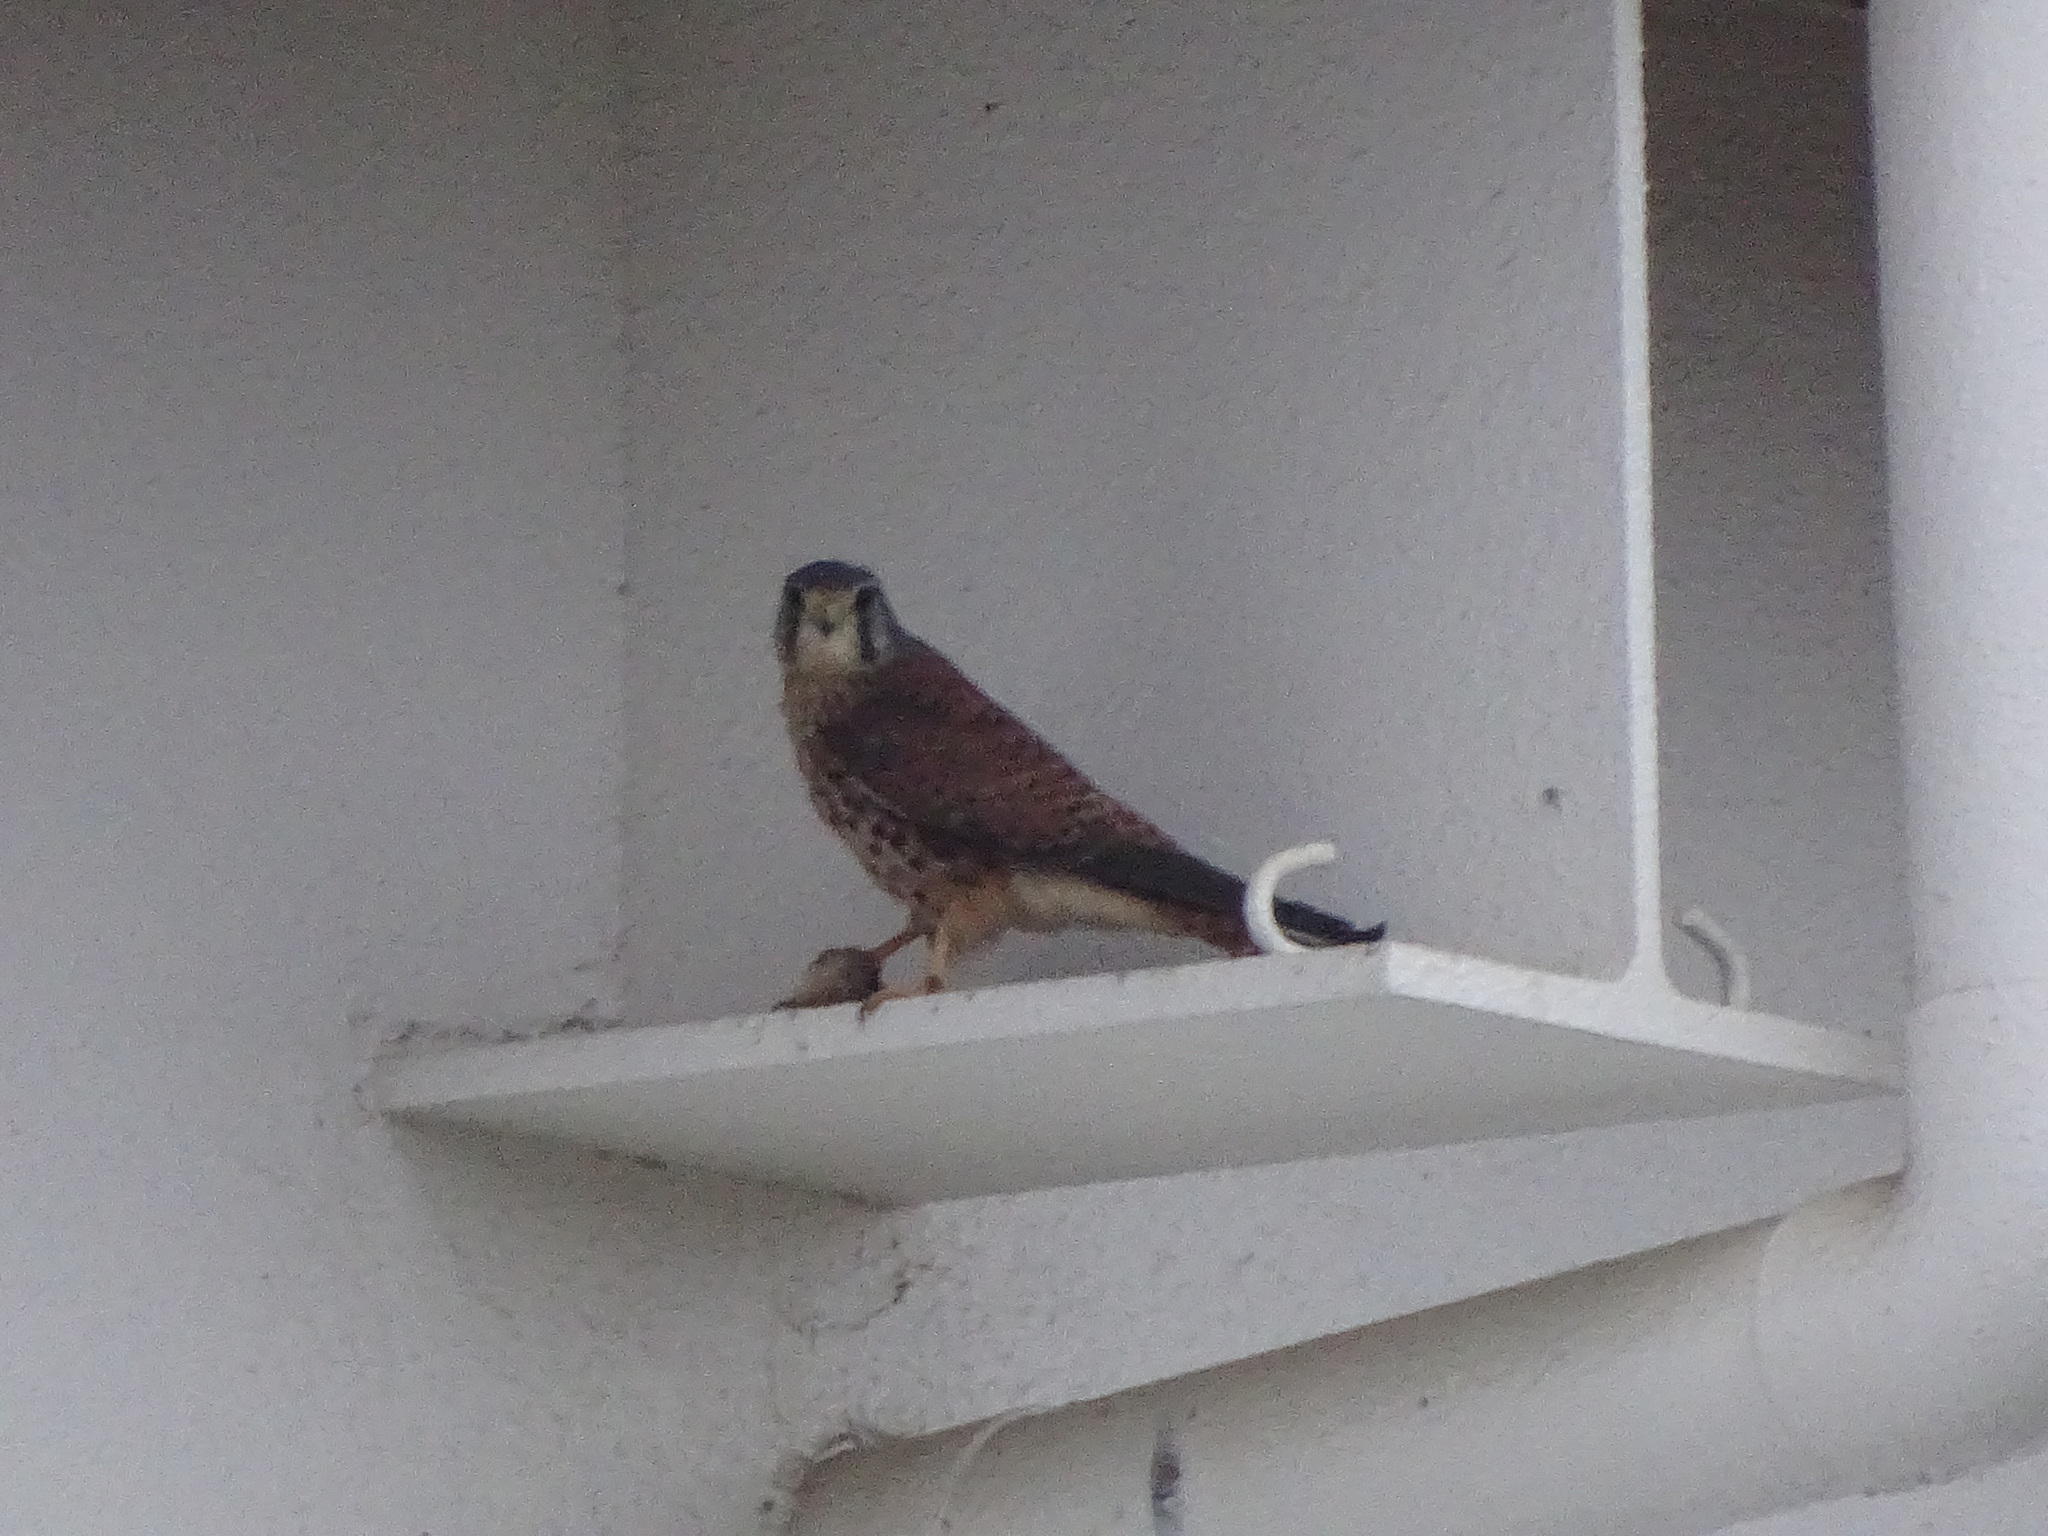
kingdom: Animalia
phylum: Chordata
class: Aves
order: Falconiformes
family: Falconidae
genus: Falco
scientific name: Falco tinnunculus
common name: Common kestrel
